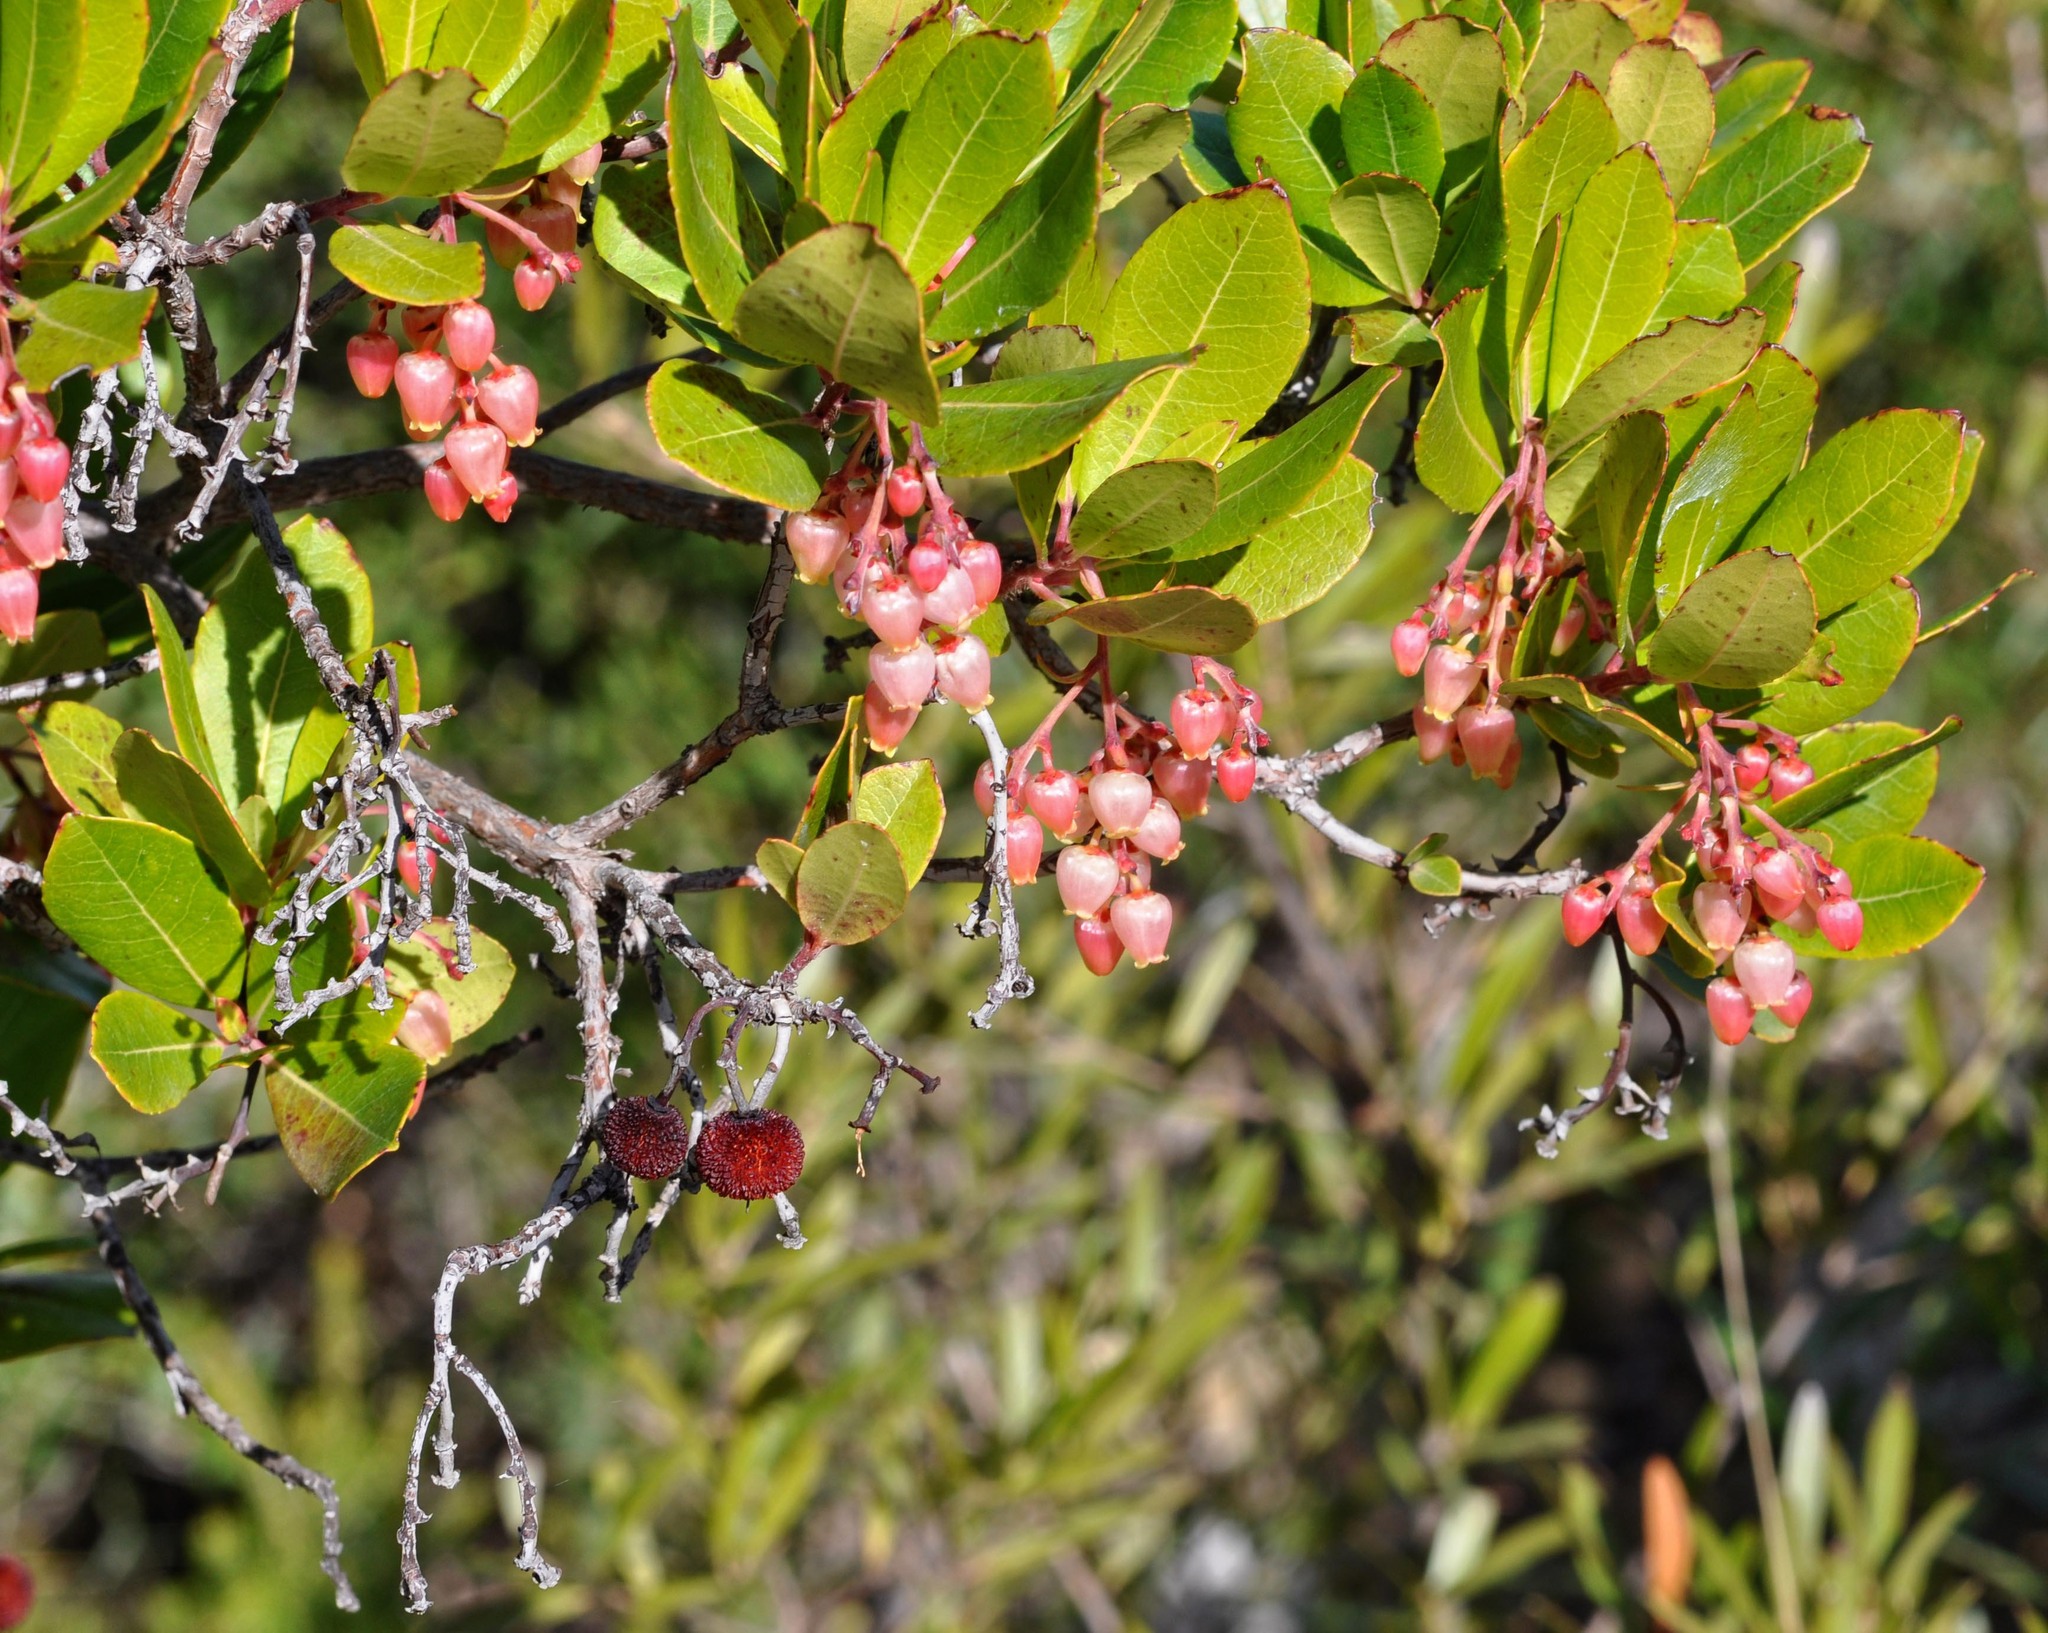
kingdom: Plantae
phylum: Tracheophyta
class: Magnoliopsida
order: Ericales
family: Ericaceae
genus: Arbutus
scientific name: Arbutus unedo
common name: Strawberry-tree
